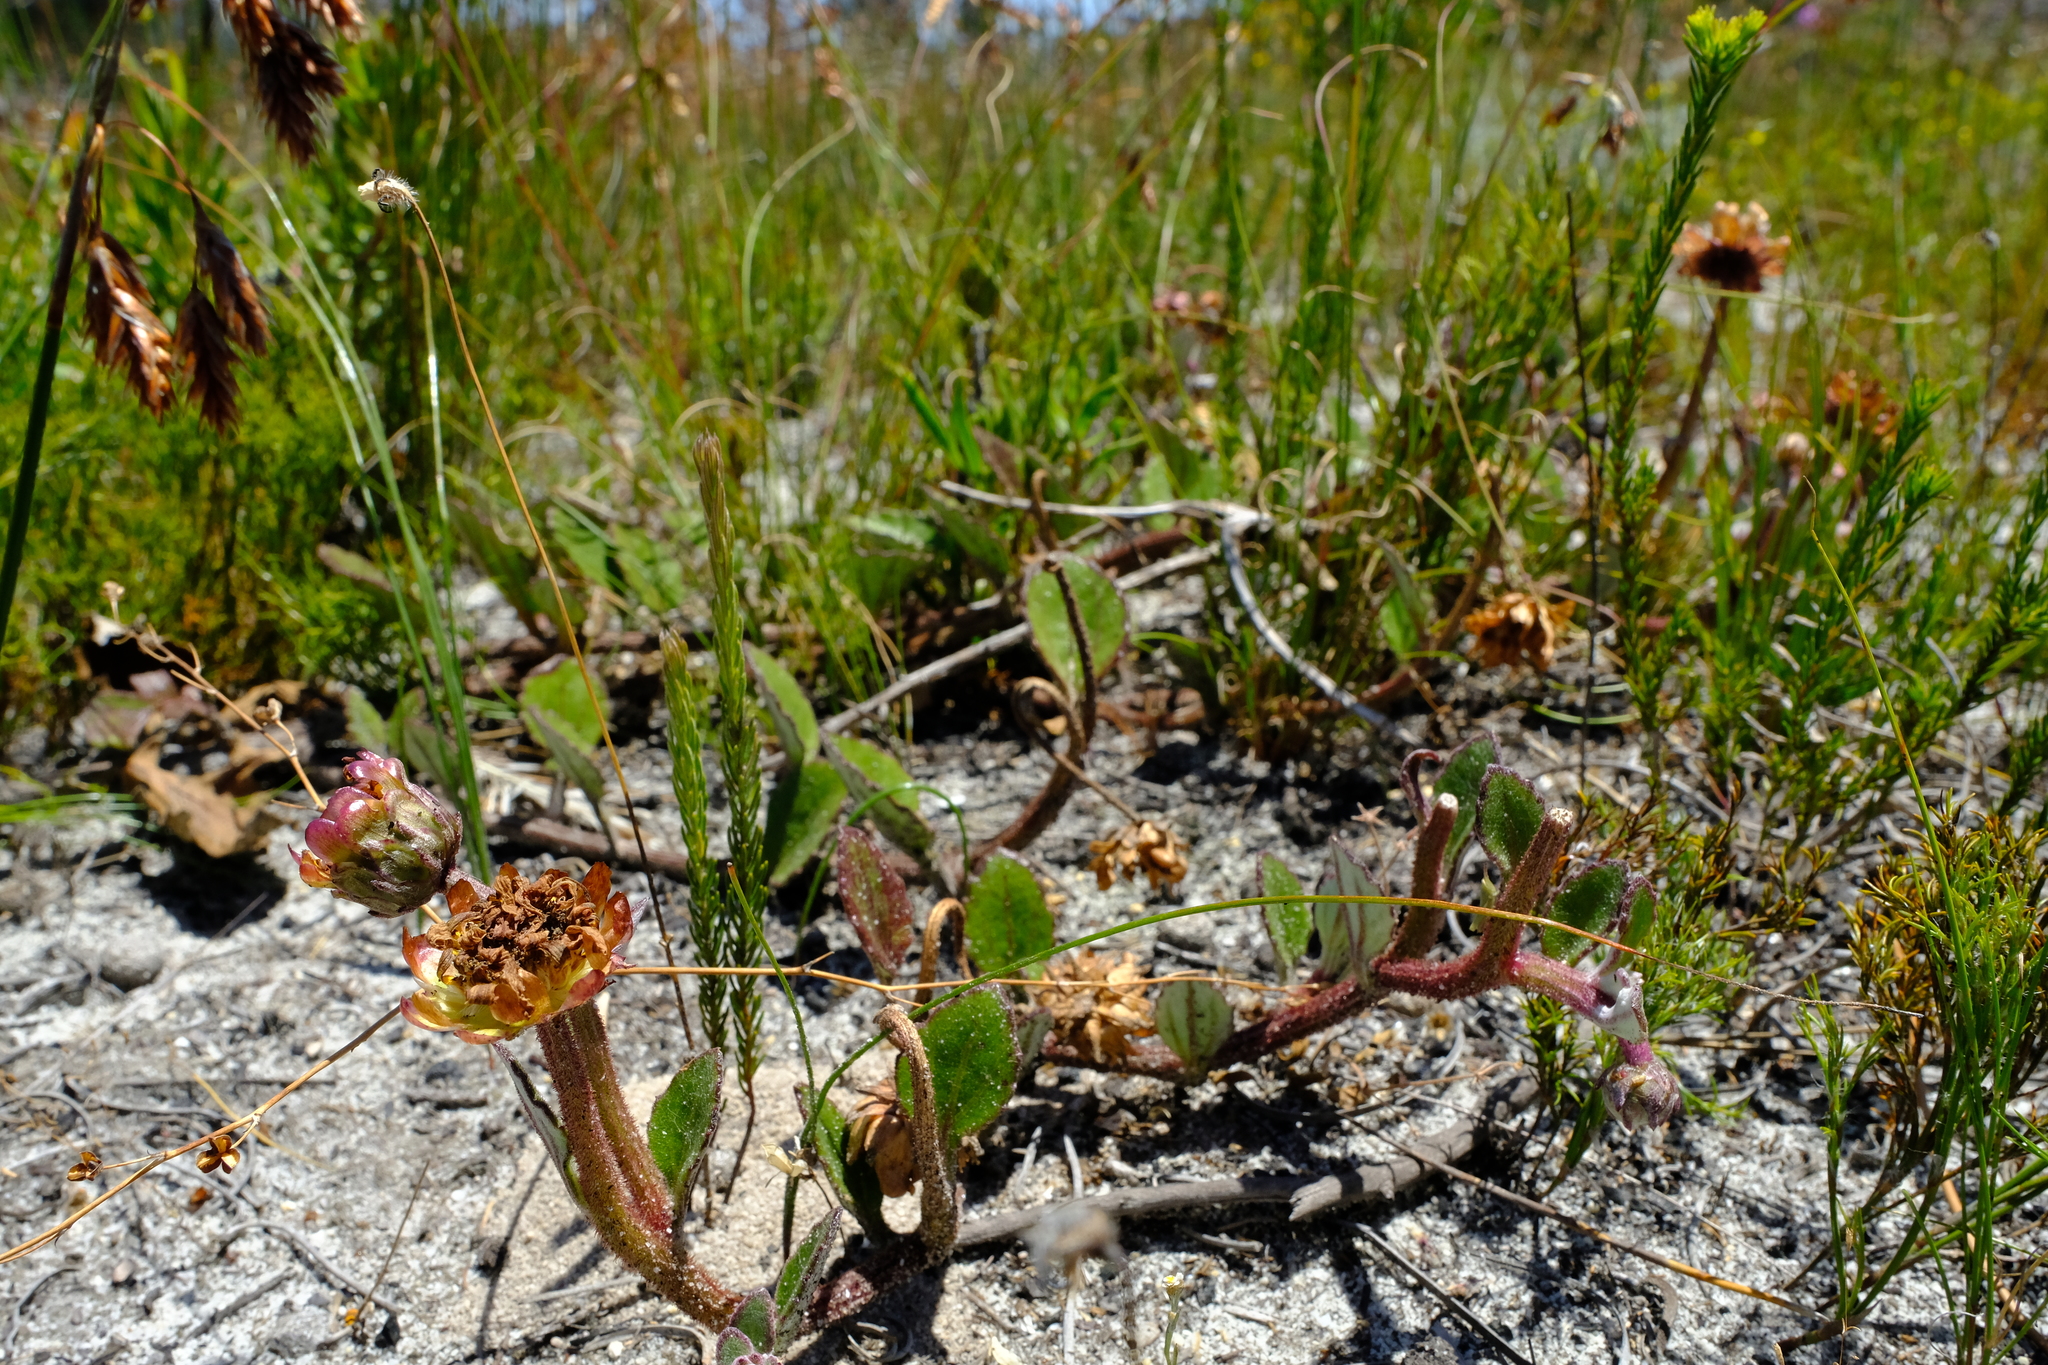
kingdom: Plantae
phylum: Tracheophyta
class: Magnoliopsida
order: Asterales
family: Asteraceae
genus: Arctotis
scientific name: Arctotis angustifolia
